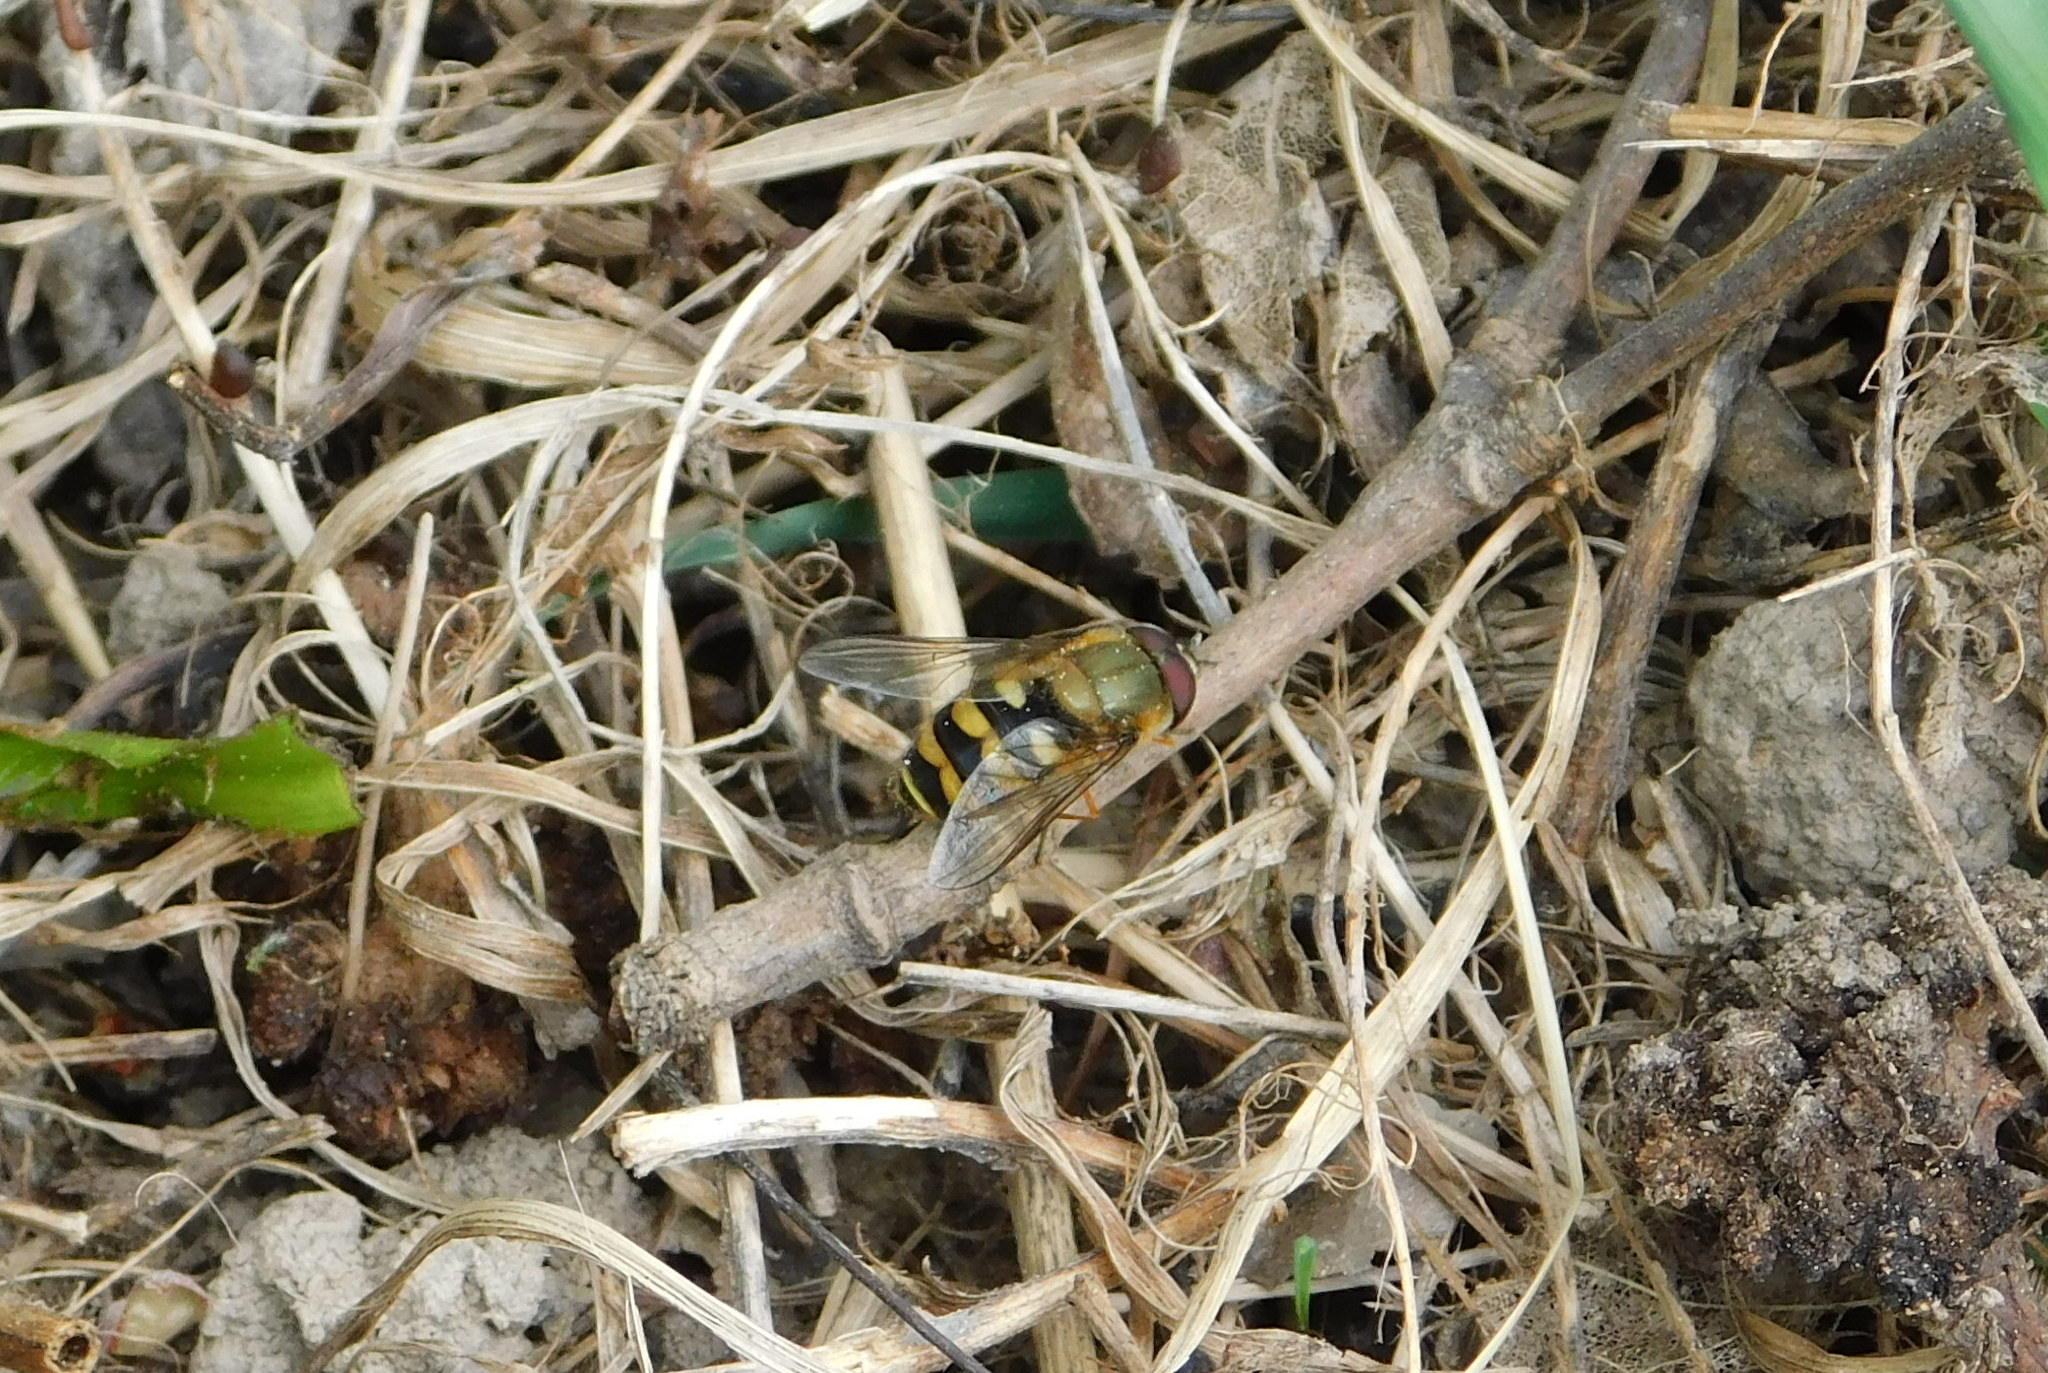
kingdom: Animalia
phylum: Arthropoda
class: Insecta
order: Diptera
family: Syrphidae
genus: Syrphus
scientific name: Syrphus torvus
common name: Hairy-eyed flower fly
